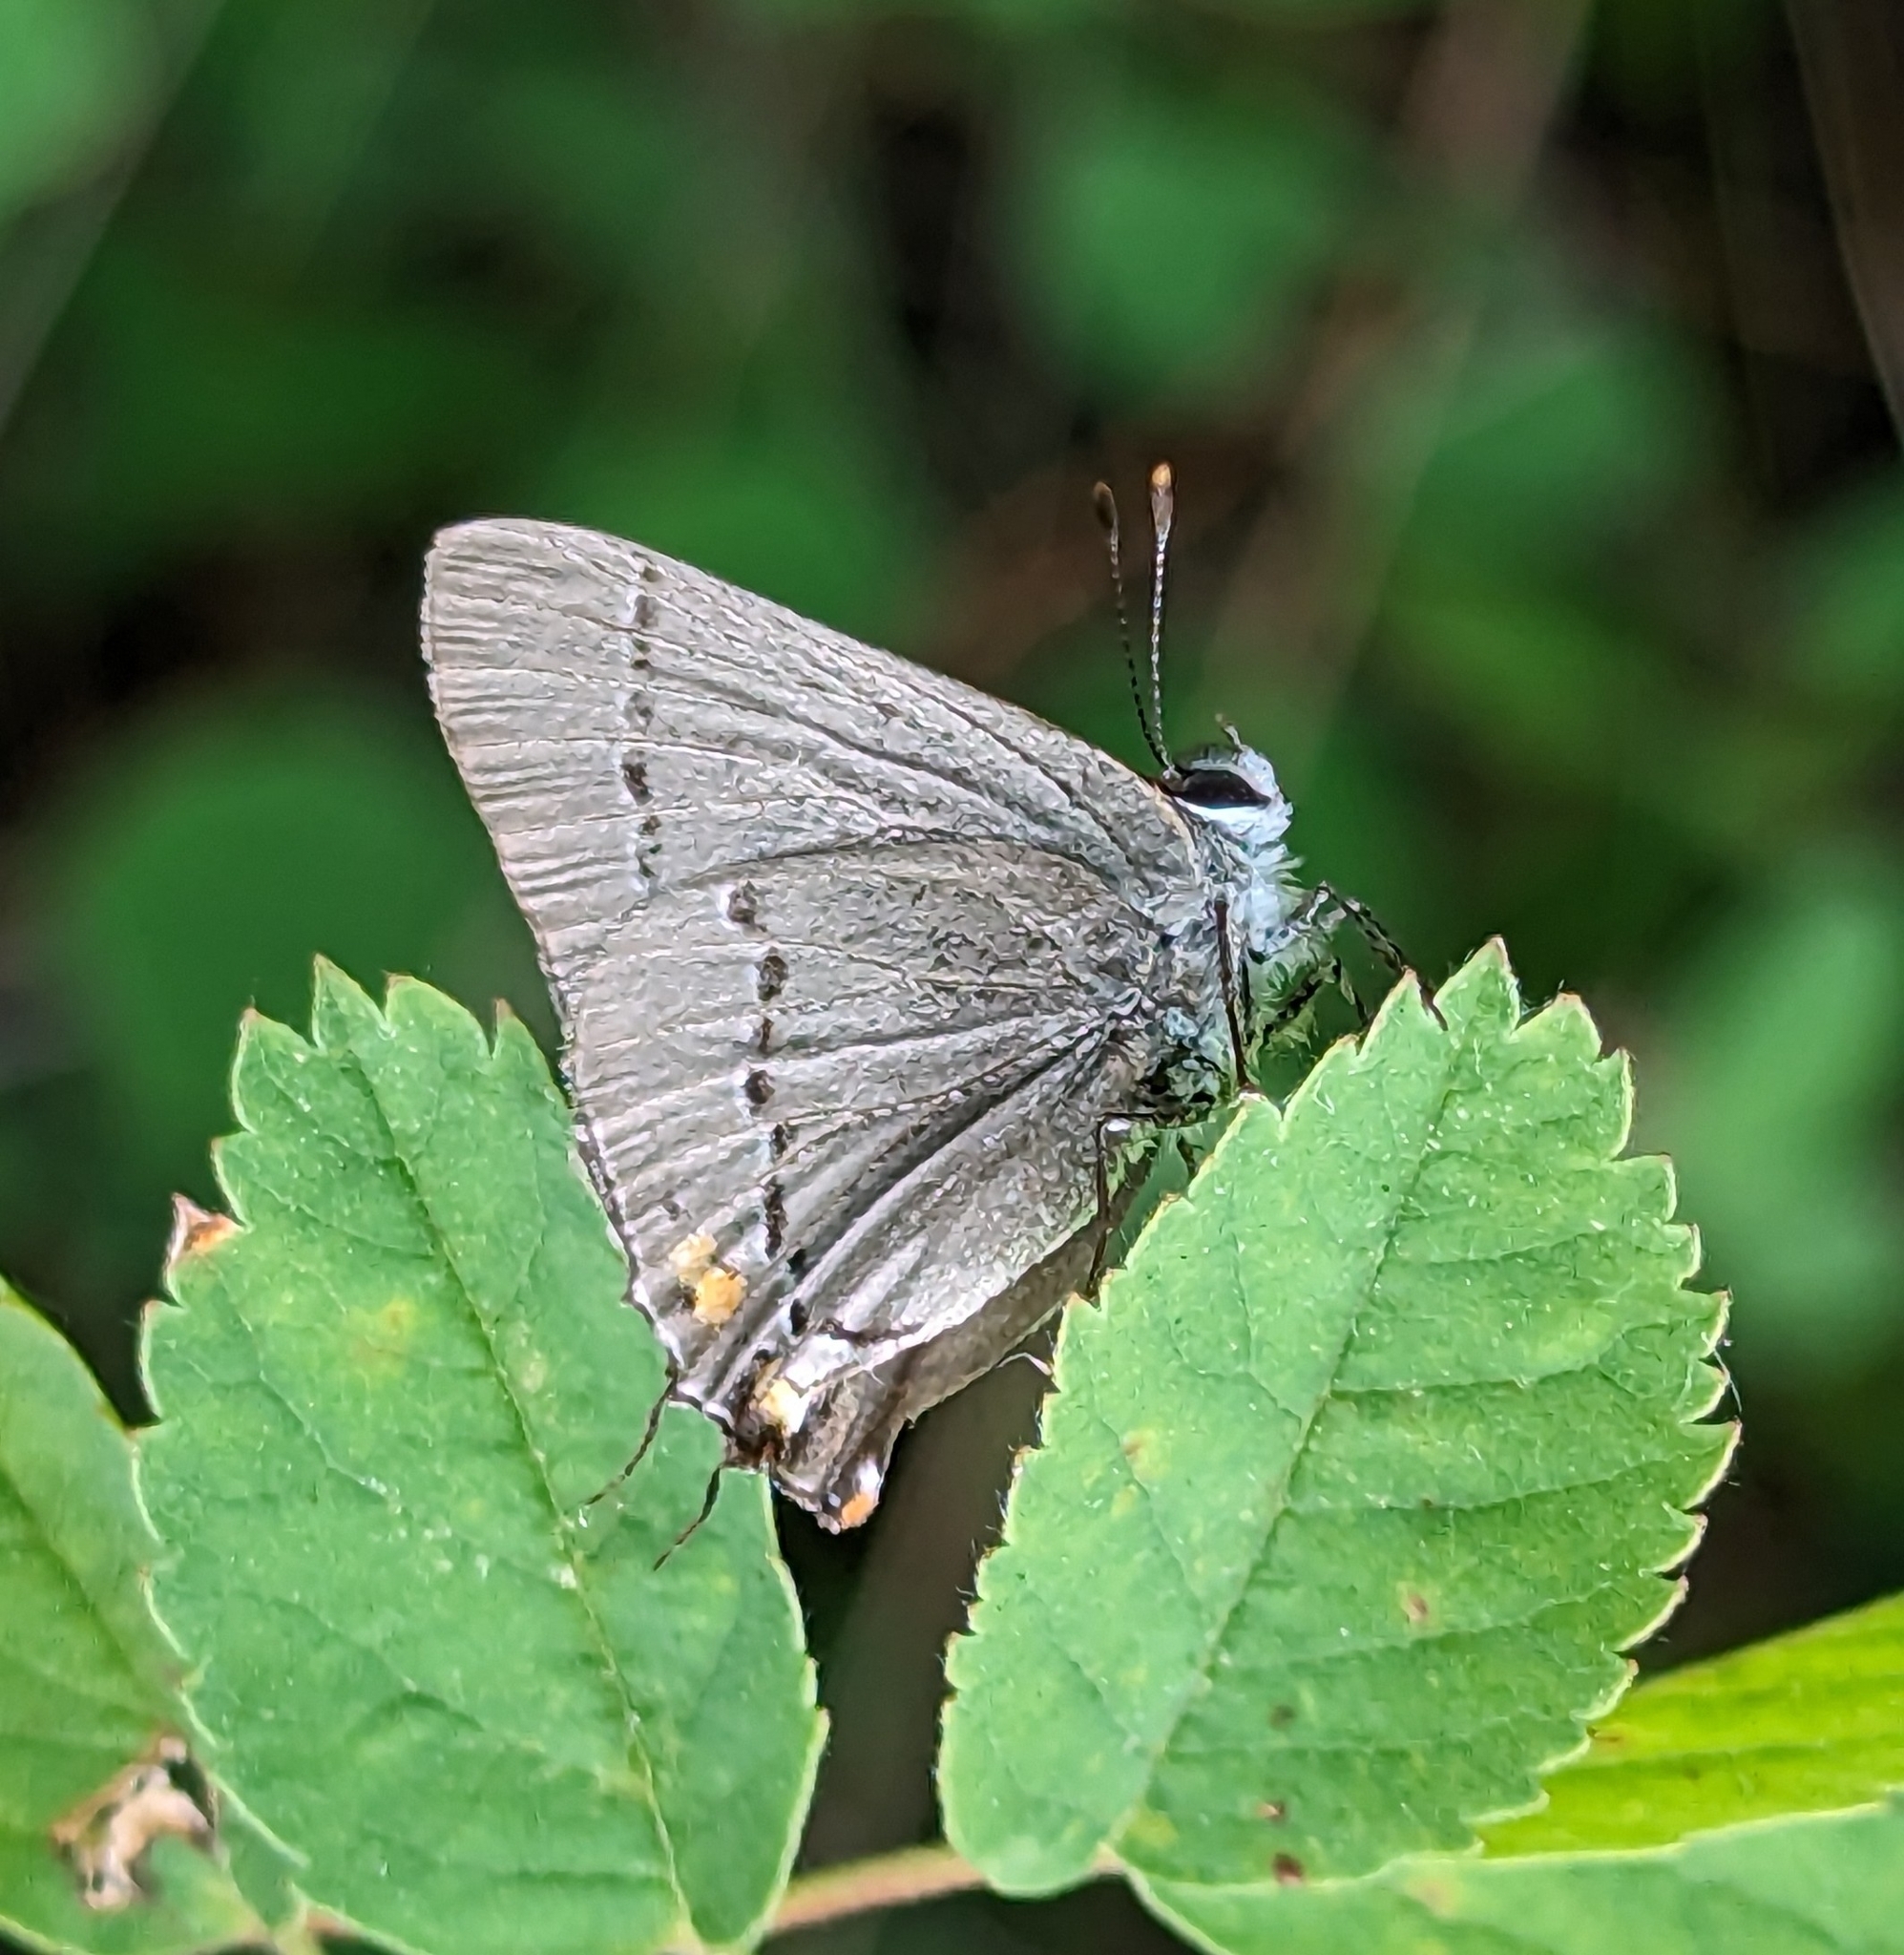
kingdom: Animalia
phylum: Arthropoda
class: Insecta
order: Lepidoptera
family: Lycaenidae
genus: Strymon
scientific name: Strymon melinus
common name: Gray hairstreak
